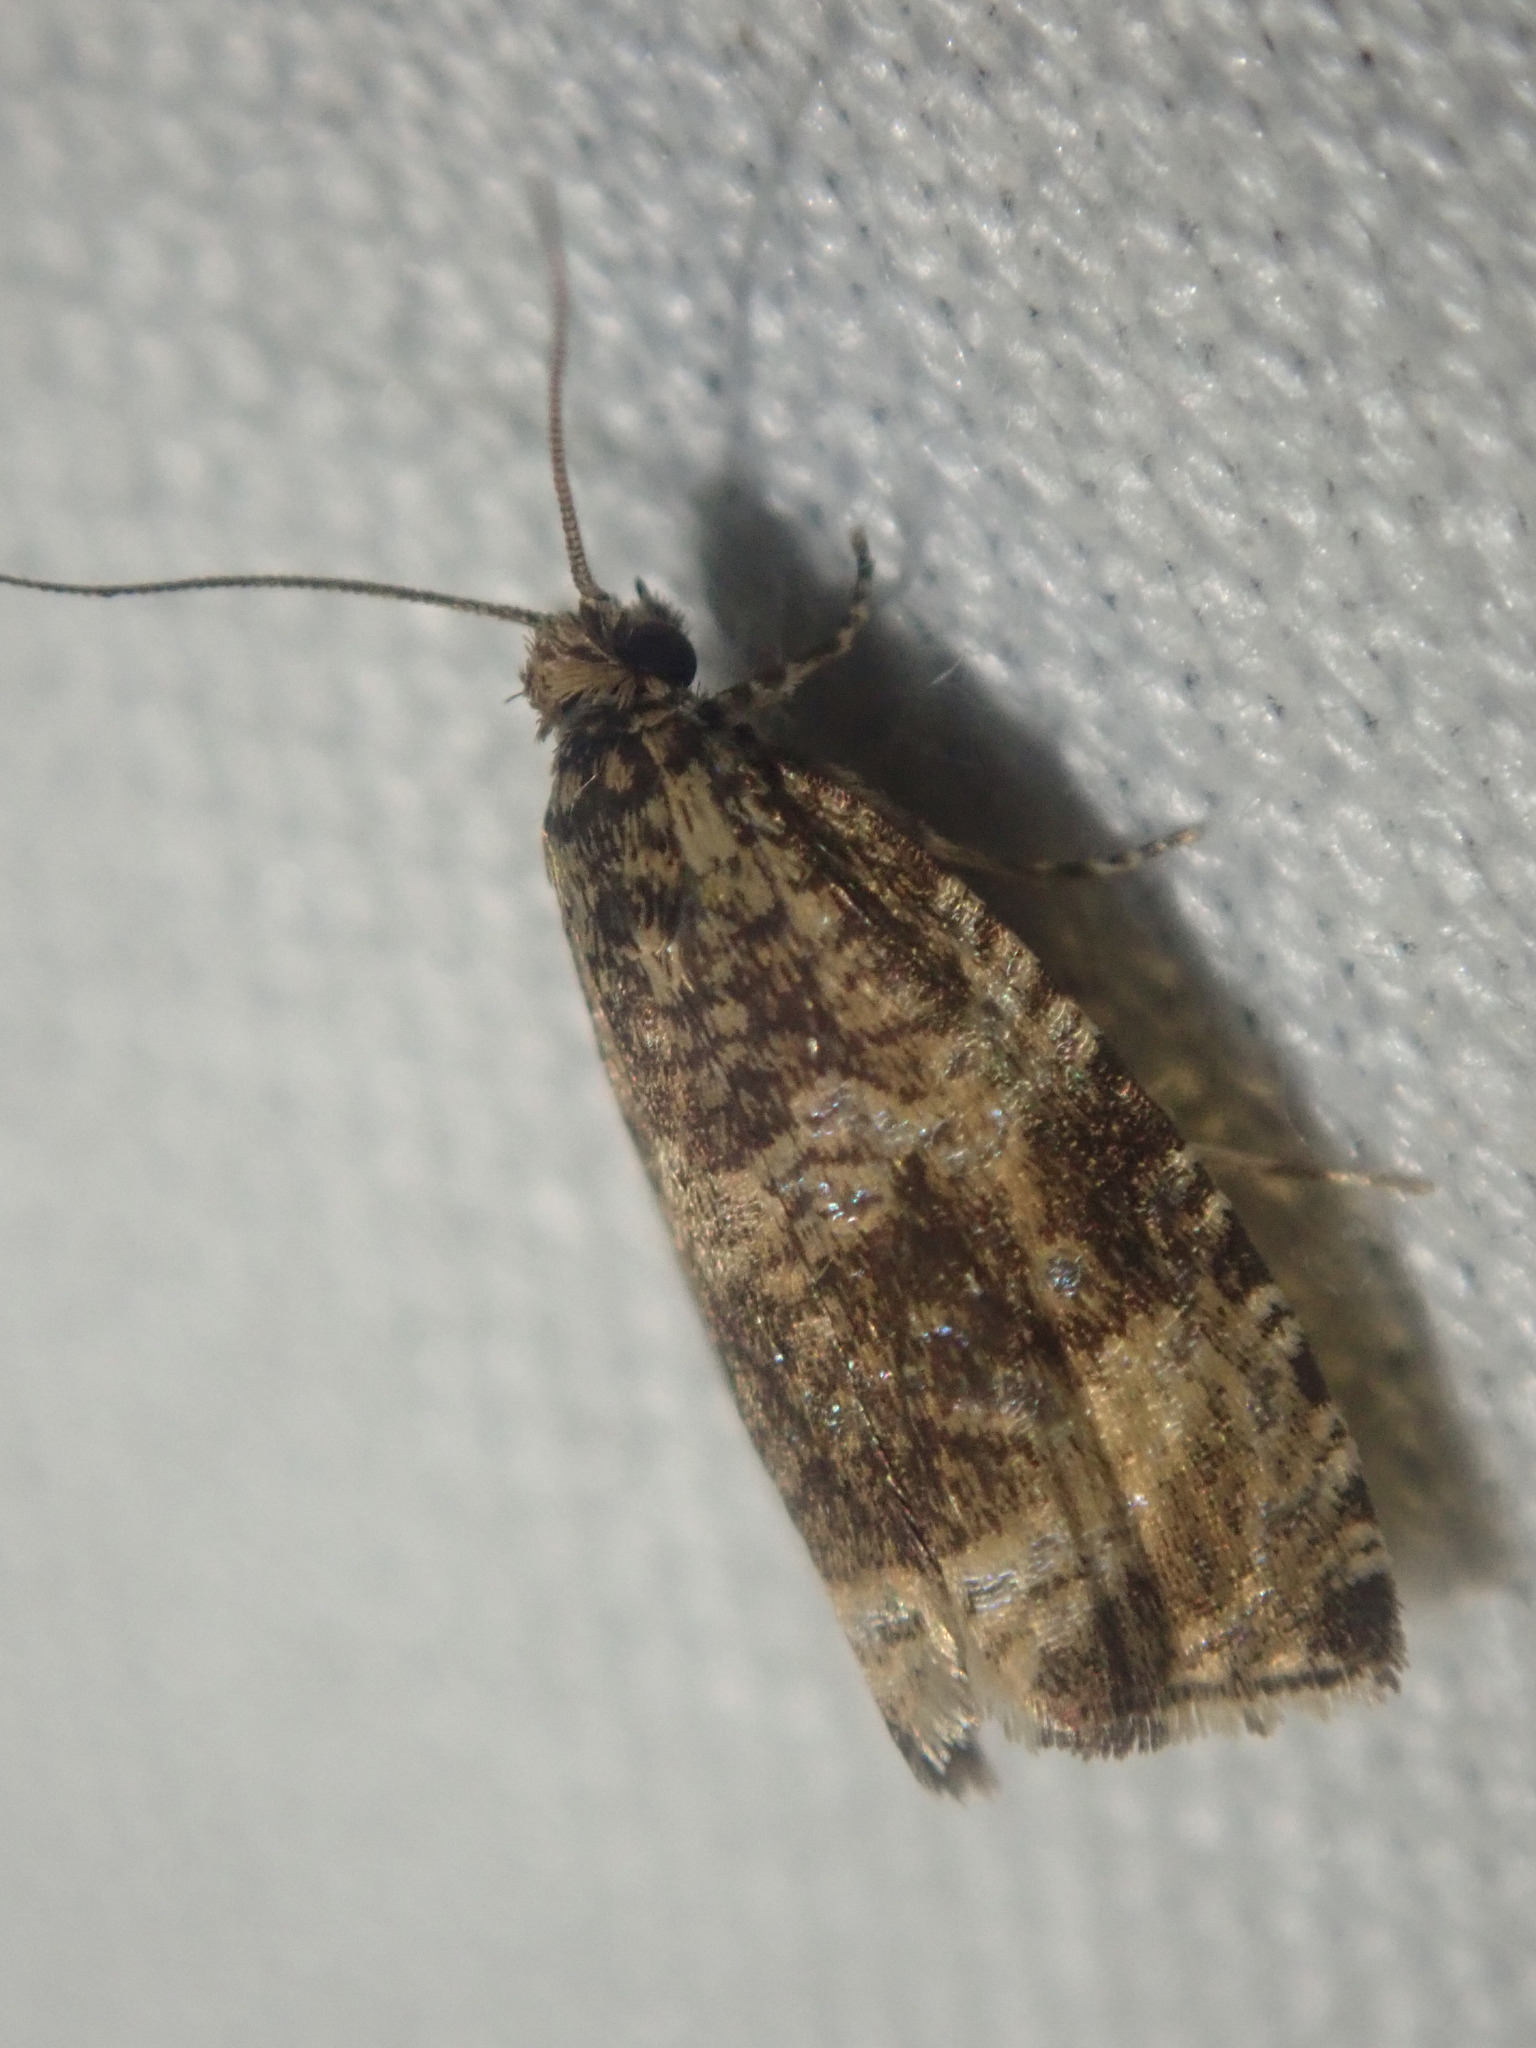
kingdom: Animalia
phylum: Arthropoda
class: Insecta
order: Lepidoptera
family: Tortricidae
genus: Syricoris
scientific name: Syricoris lacunana
